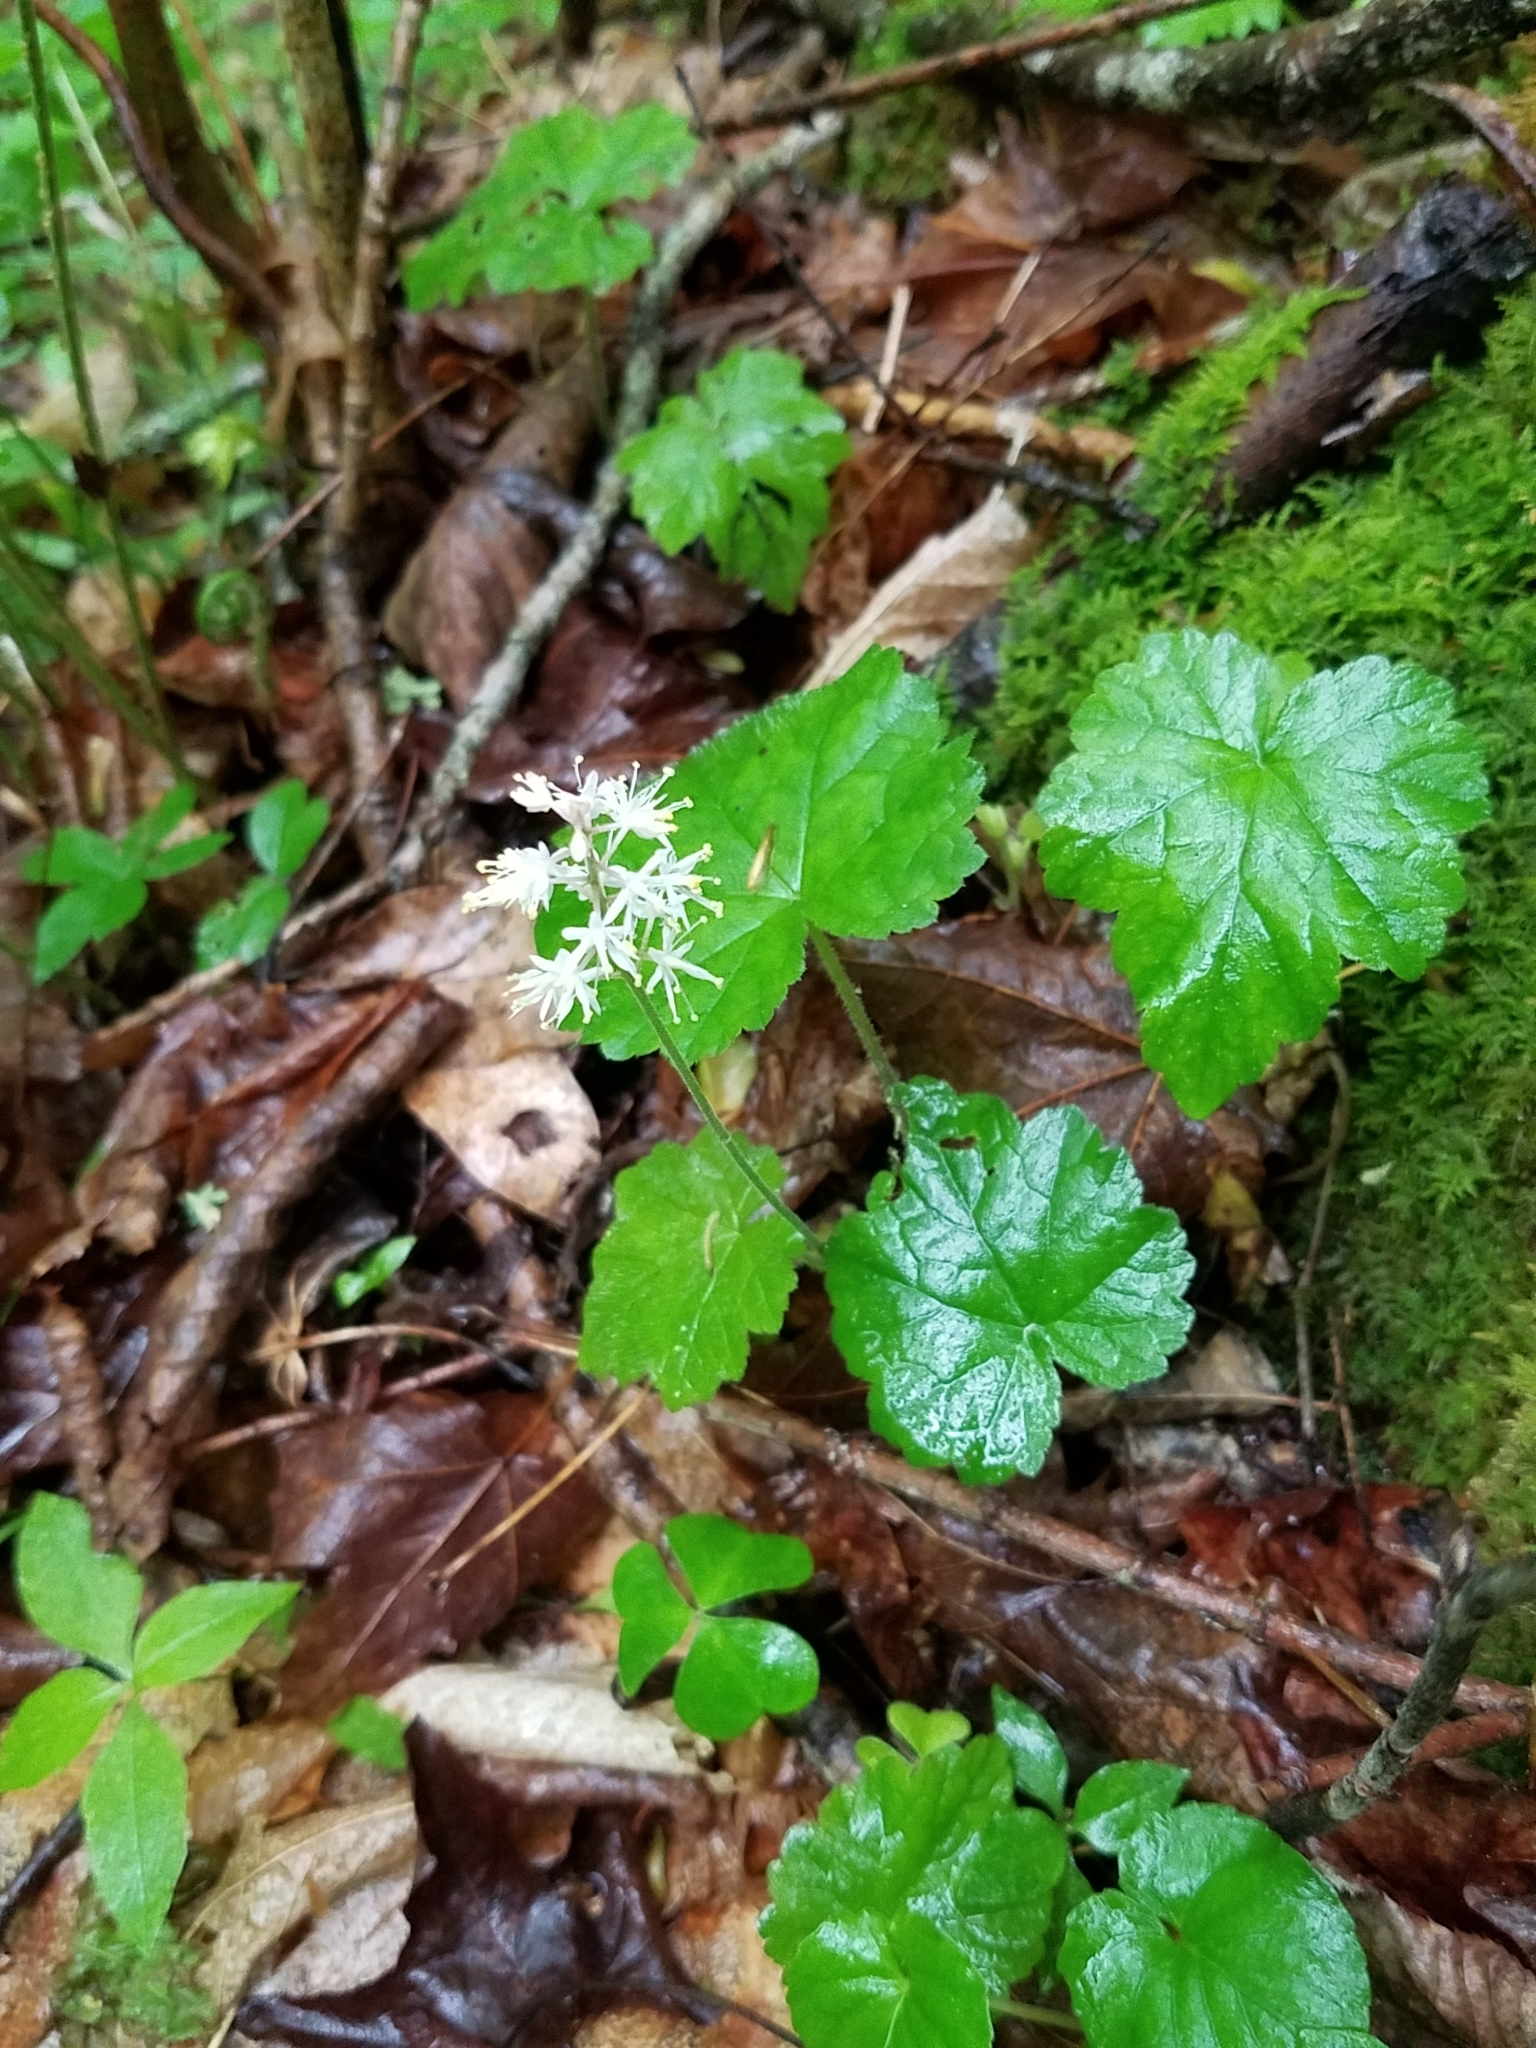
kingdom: Plantae
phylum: Tracheophyta
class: Magnoliopsida
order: Saxifragales
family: Saxifragaceae
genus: Tiarella
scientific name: Tiarella stolonifera
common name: Stoloniferous foamflower
